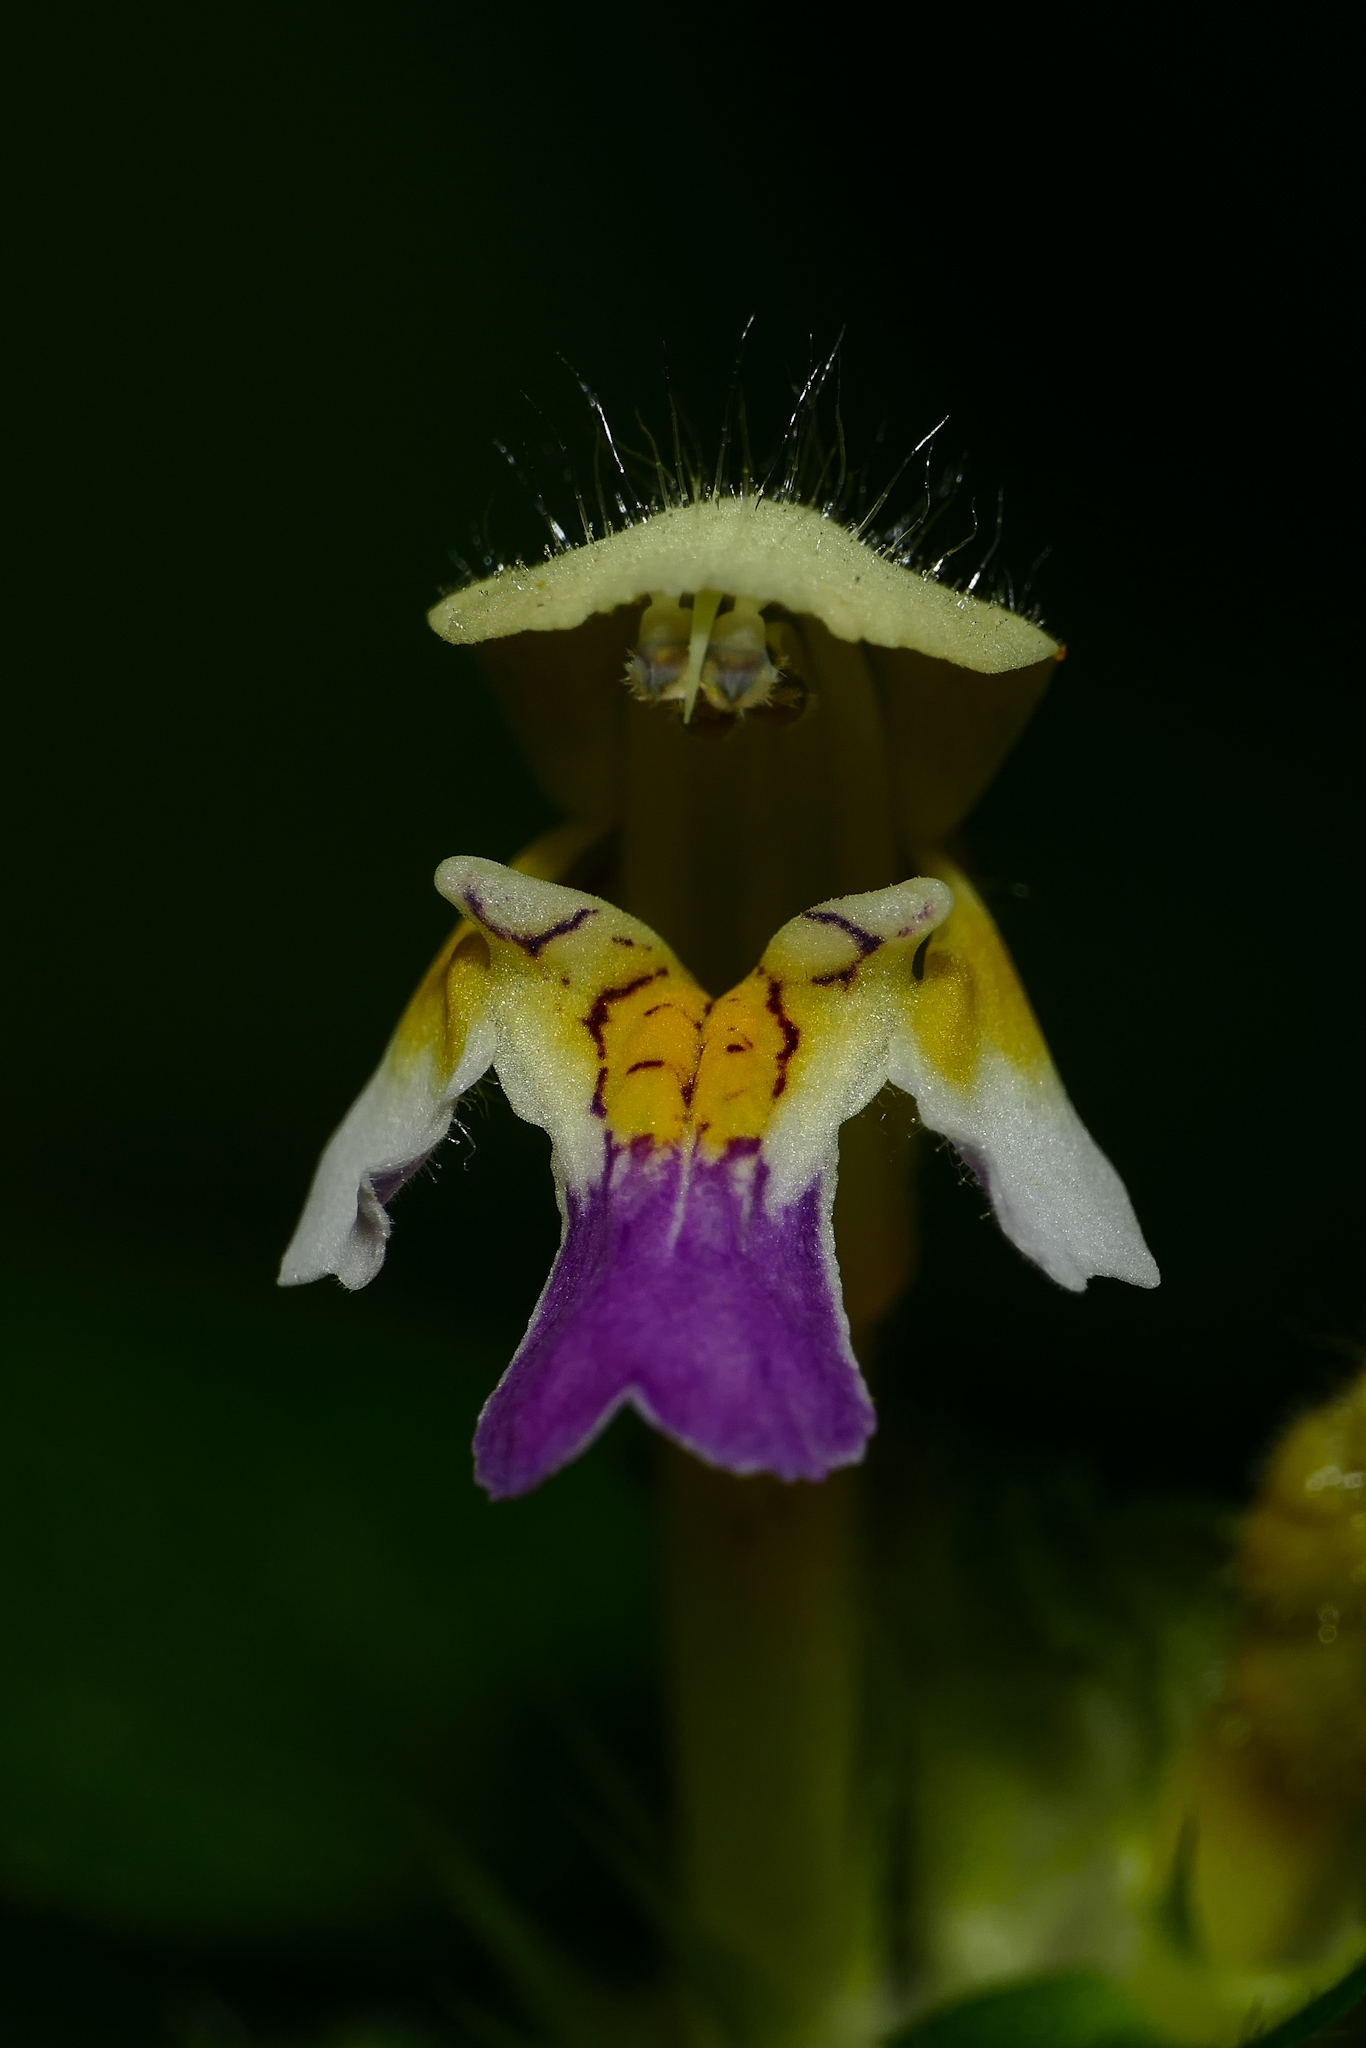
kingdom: Plantae
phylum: Tracheophyta
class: Magnoliopsida
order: Lamiales
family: Lamiaceae
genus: Galeopsis
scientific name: Galeopsis speciosa
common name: Large-flowered hemp-nettle
